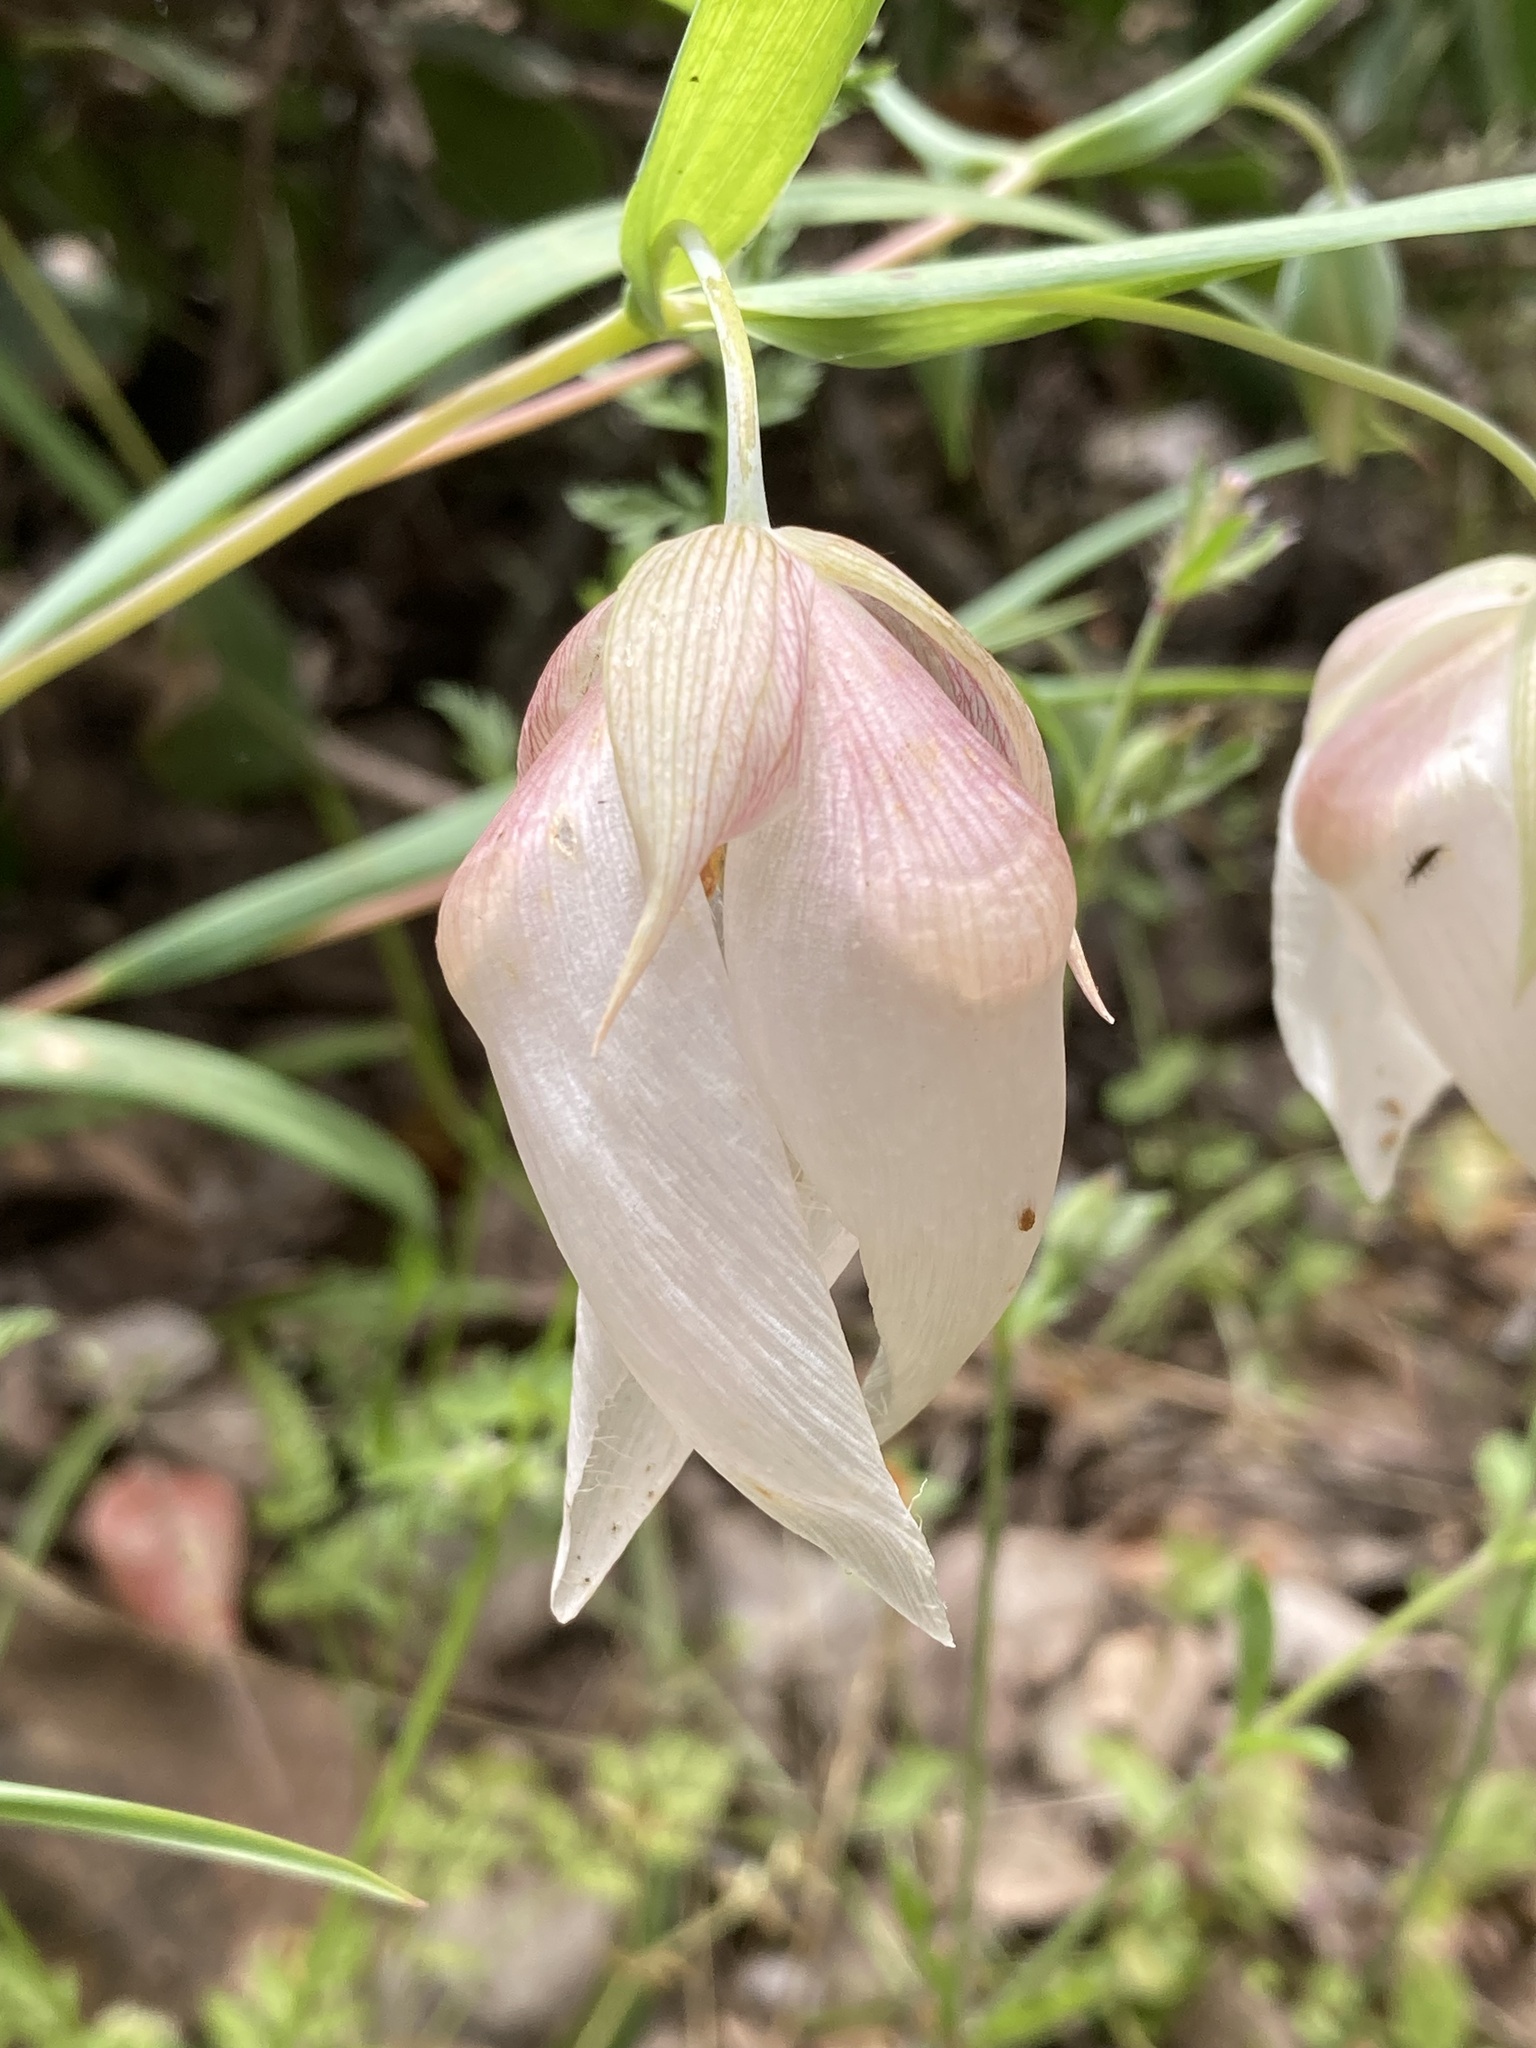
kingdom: Plantae
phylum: Tracheophyta
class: Liliopsida
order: Liliales
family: Liliaceae
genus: Calochortus
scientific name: Calochortus albus
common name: Fairy-lantern
